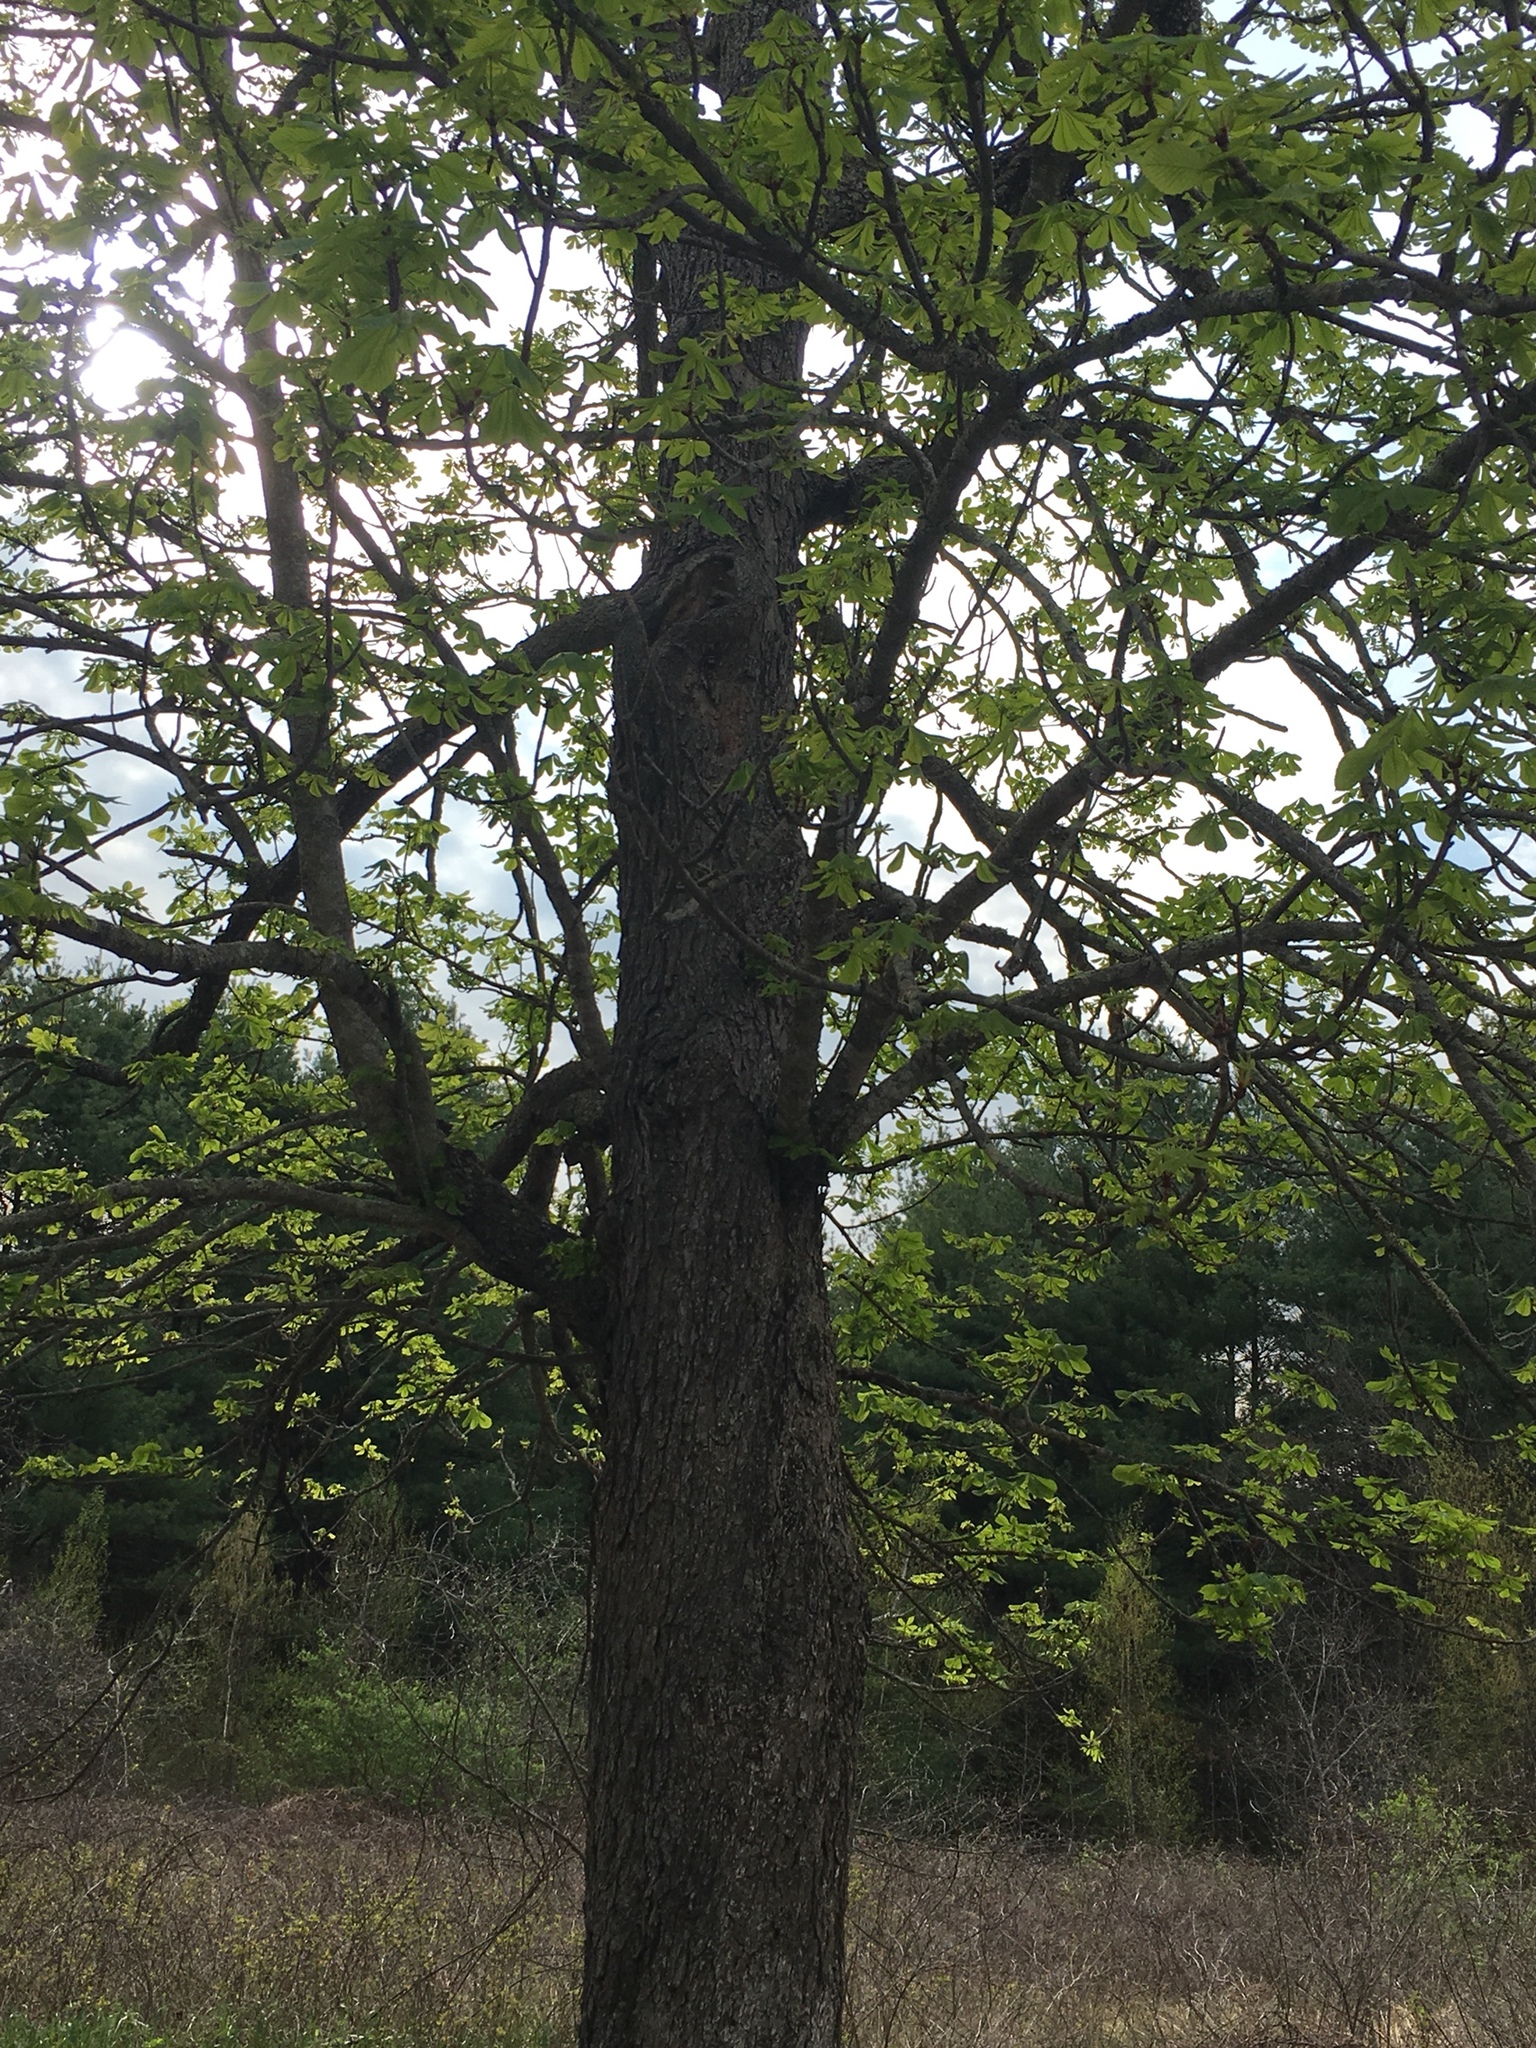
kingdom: Plantae
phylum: Tracheophyta
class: Magnoliopsida
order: Sapindales
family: Sapindaceae
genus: Aesculus
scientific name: Aesculus hippocastanum
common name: Horse-chestnut
